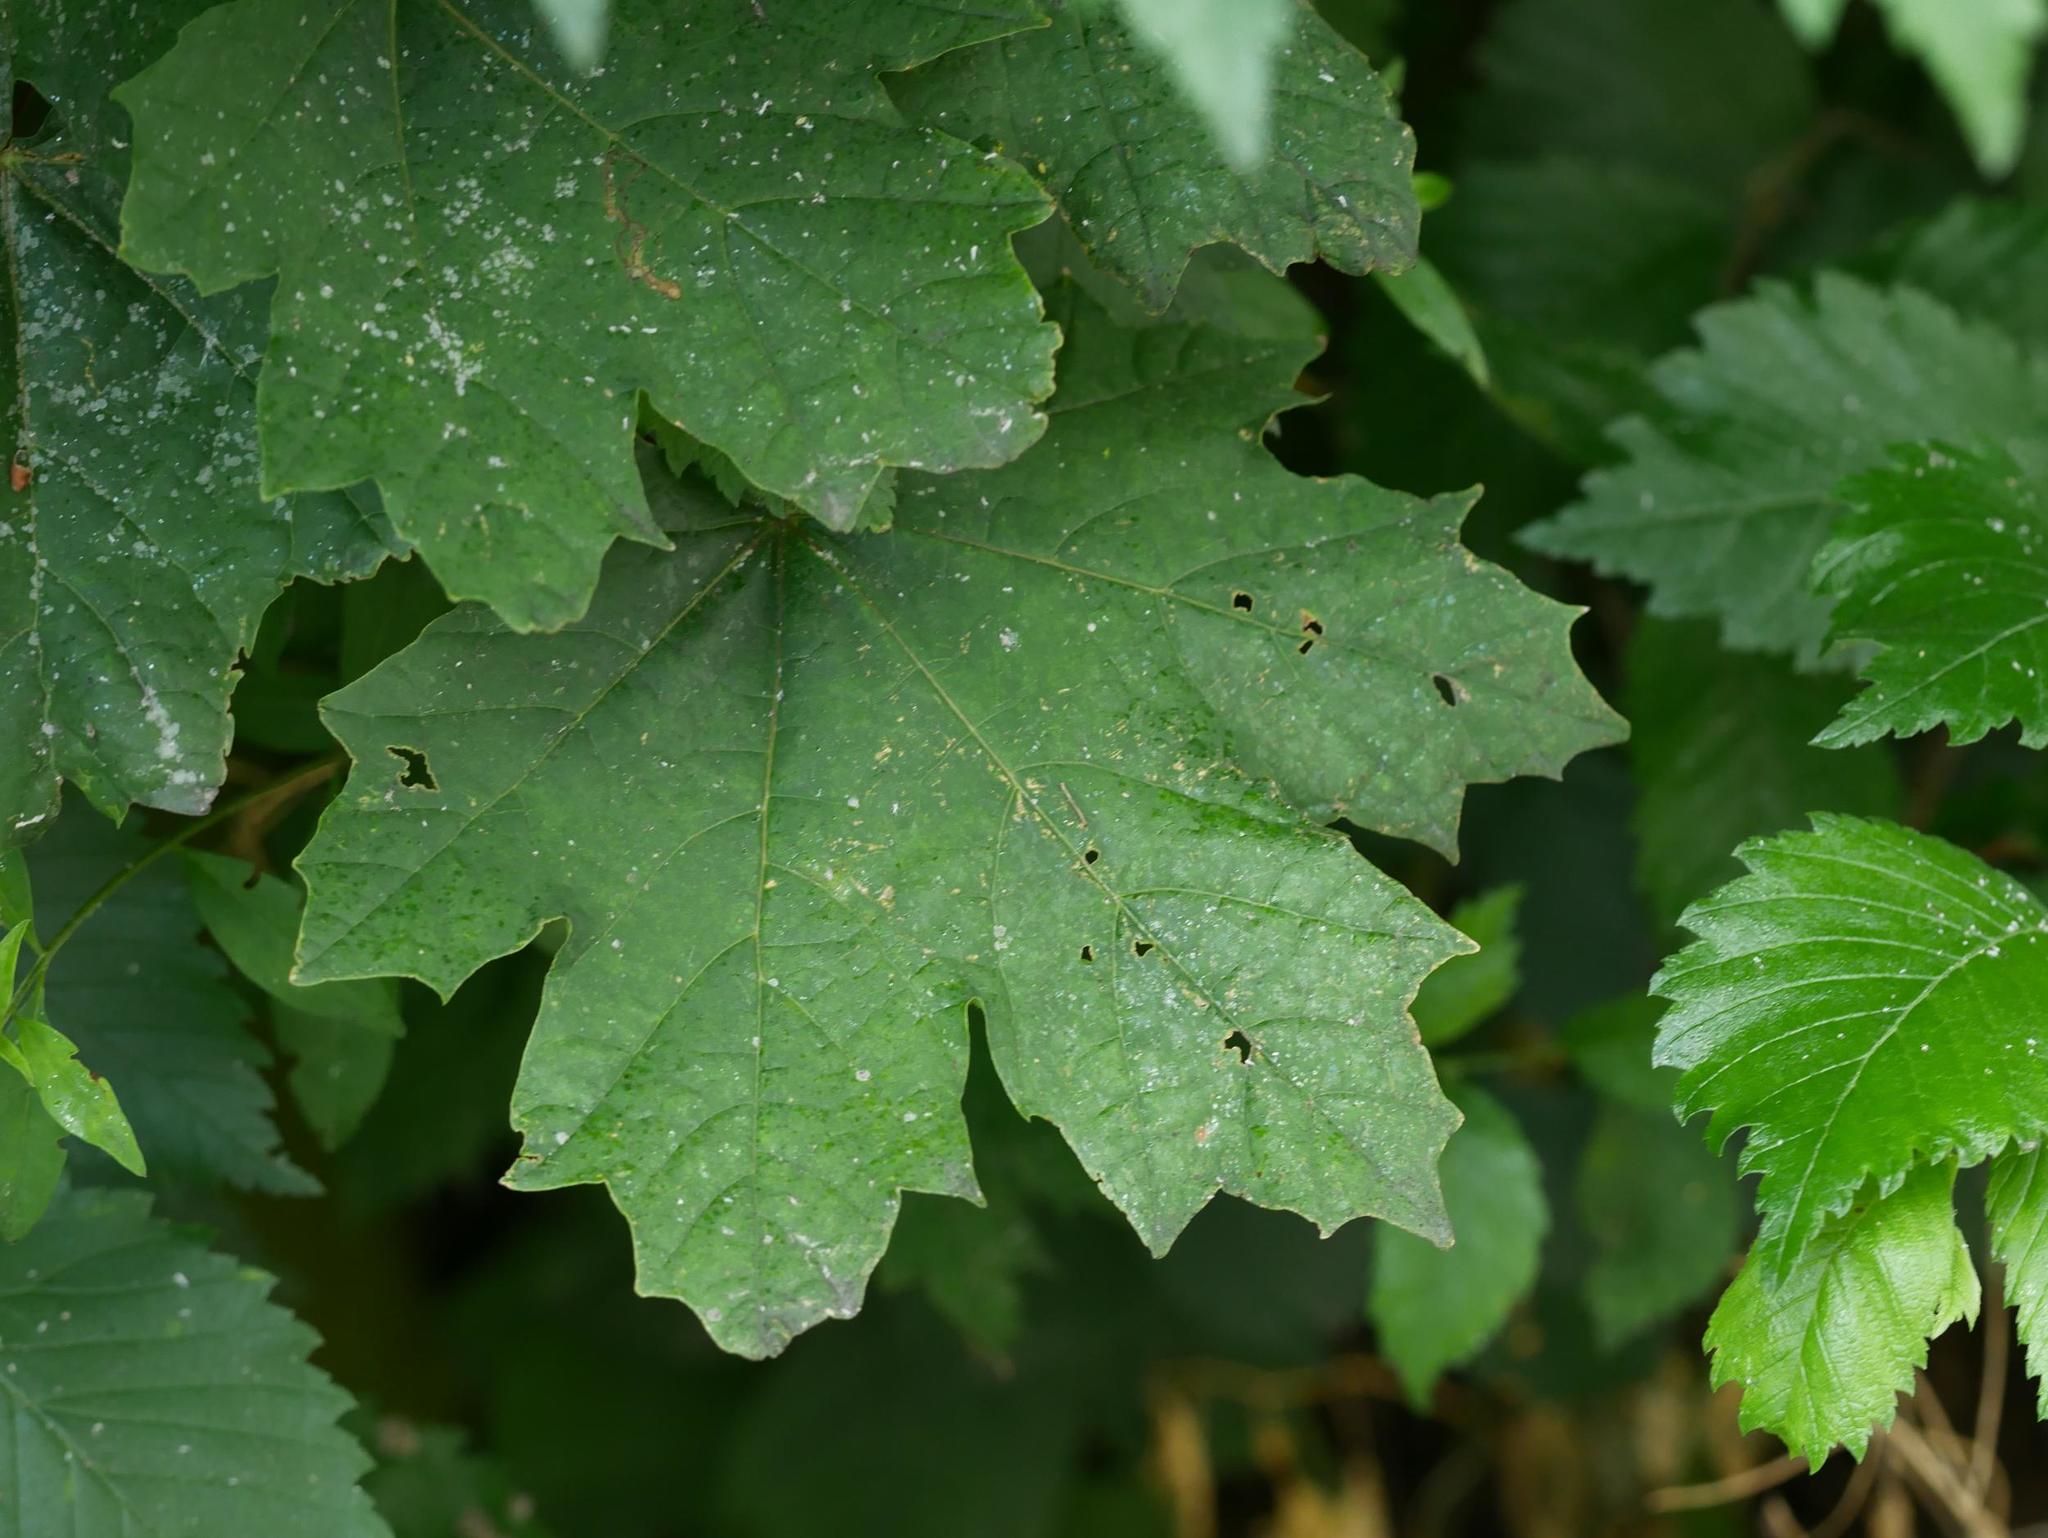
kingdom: Plantae
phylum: Tracheophyta
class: Magnoliopsida
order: Sapindales
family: Sapindaceae
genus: Acer
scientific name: Acer platanoides
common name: Norway maple
